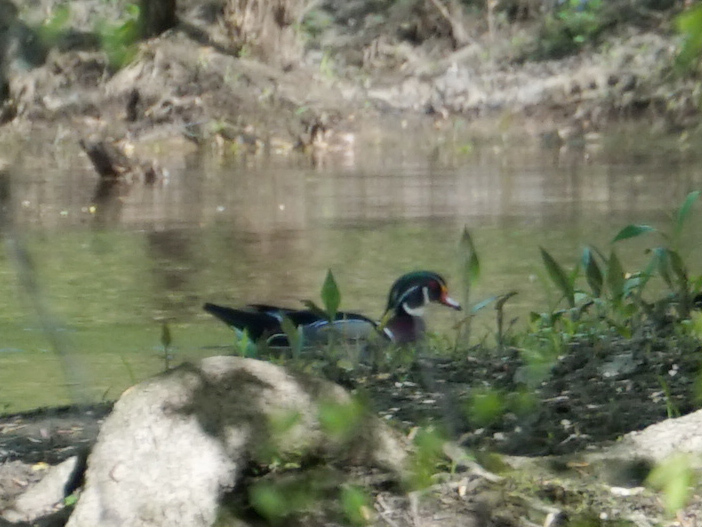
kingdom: Animalia
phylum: Chordata
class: Aves
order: Anseriformes
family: Anatidae
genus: Aix
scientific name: Aix sponsa
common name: Wood duck
